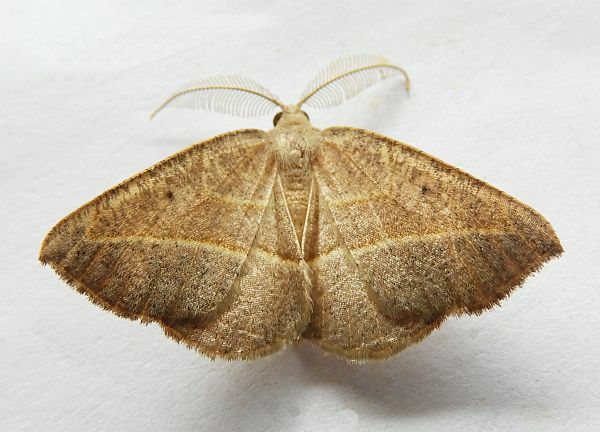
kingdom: Animalia
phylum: Arthropoda
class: Insecta
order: Lepidoptera
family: Geometridae
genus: Eusarca
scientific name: Eusarca tibiaria
